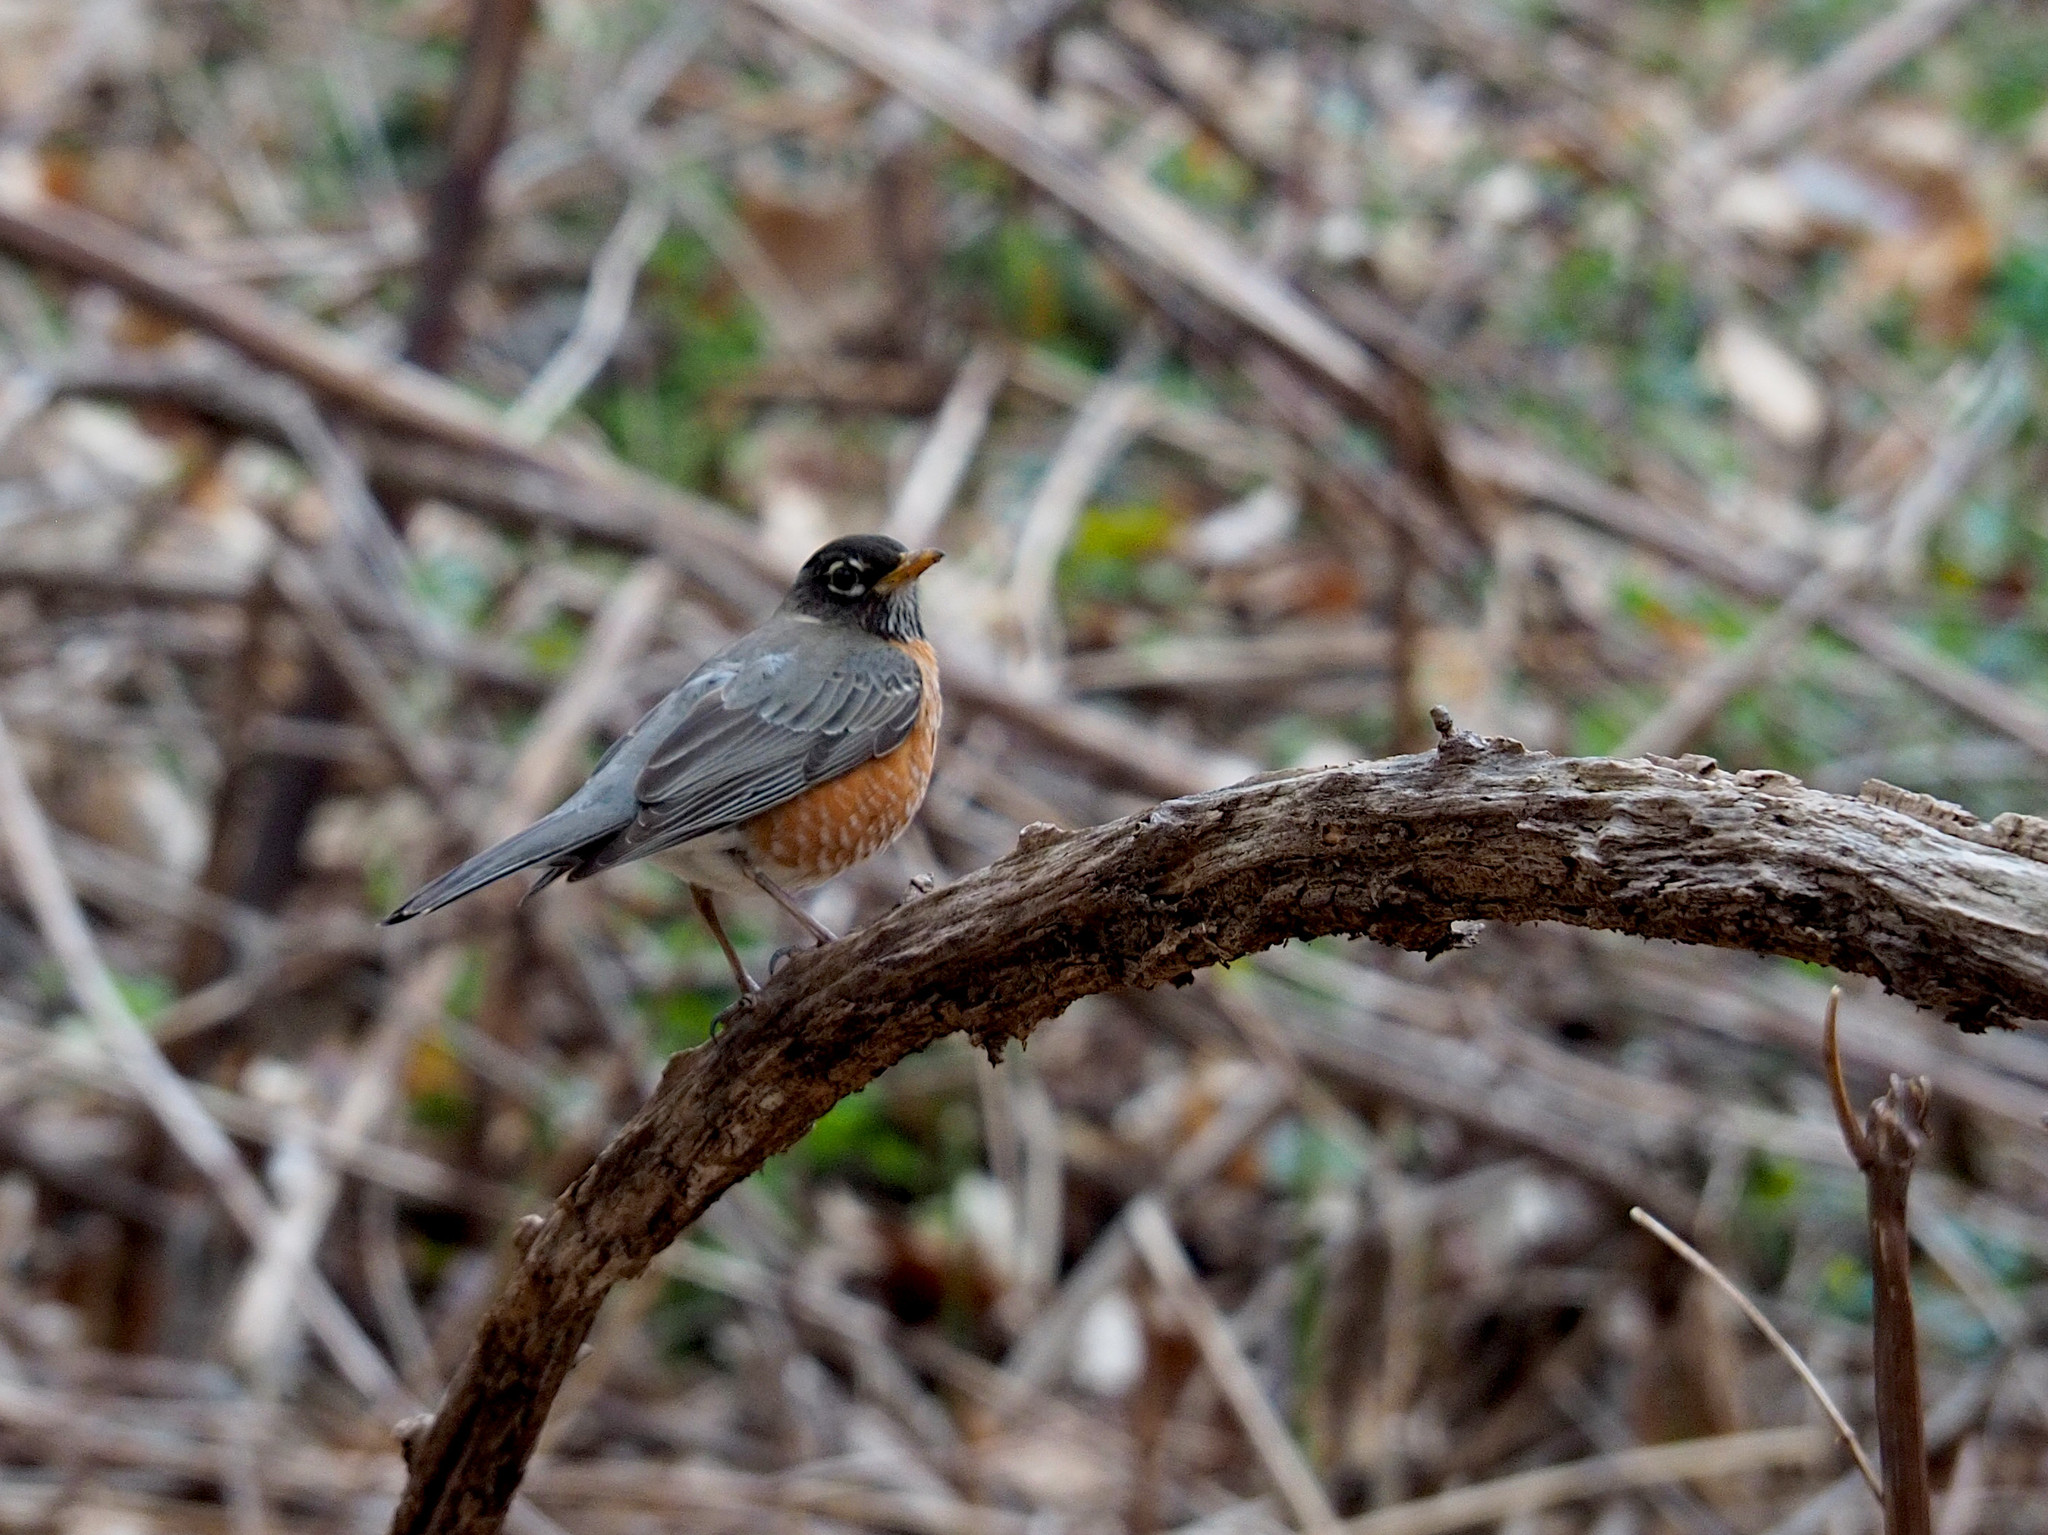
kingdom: Animalia
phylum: Chordata
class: Aves
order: Passeriformes
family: Turdidae
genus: Turdus
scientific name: Turdus migratorius
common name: American robin
